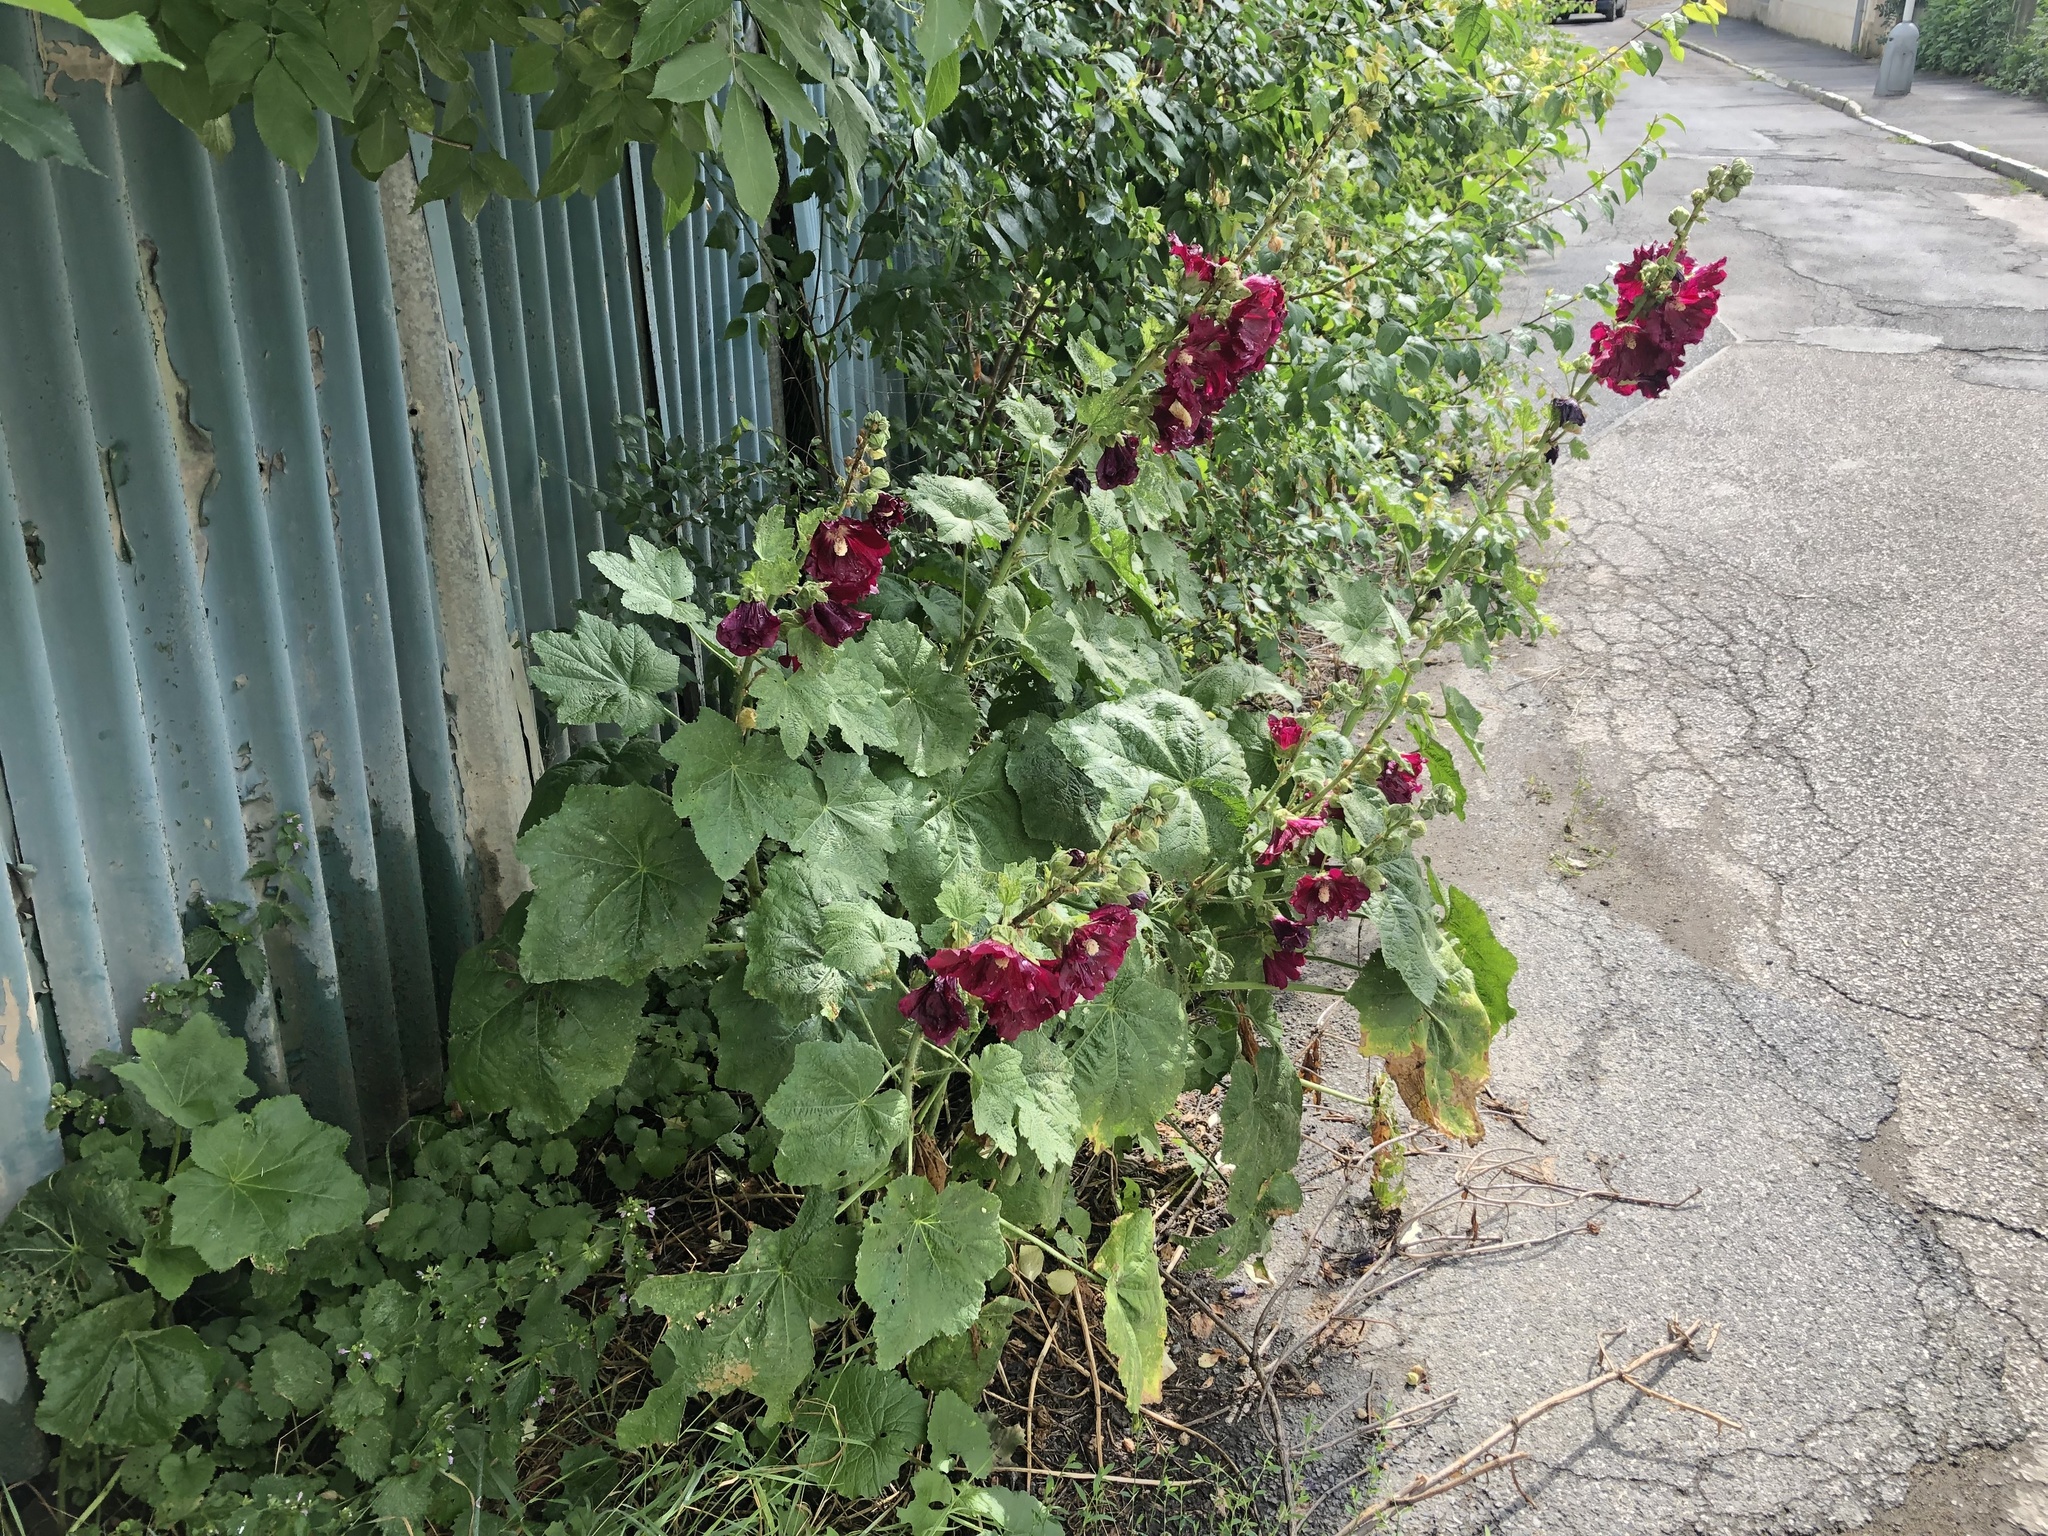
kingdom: Plantae
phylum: Tracheophyta
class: Magnoliopsida
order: Malvales
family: Malvaceae
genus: Alcea
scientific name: Alcea rosea
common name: Hollyhock
